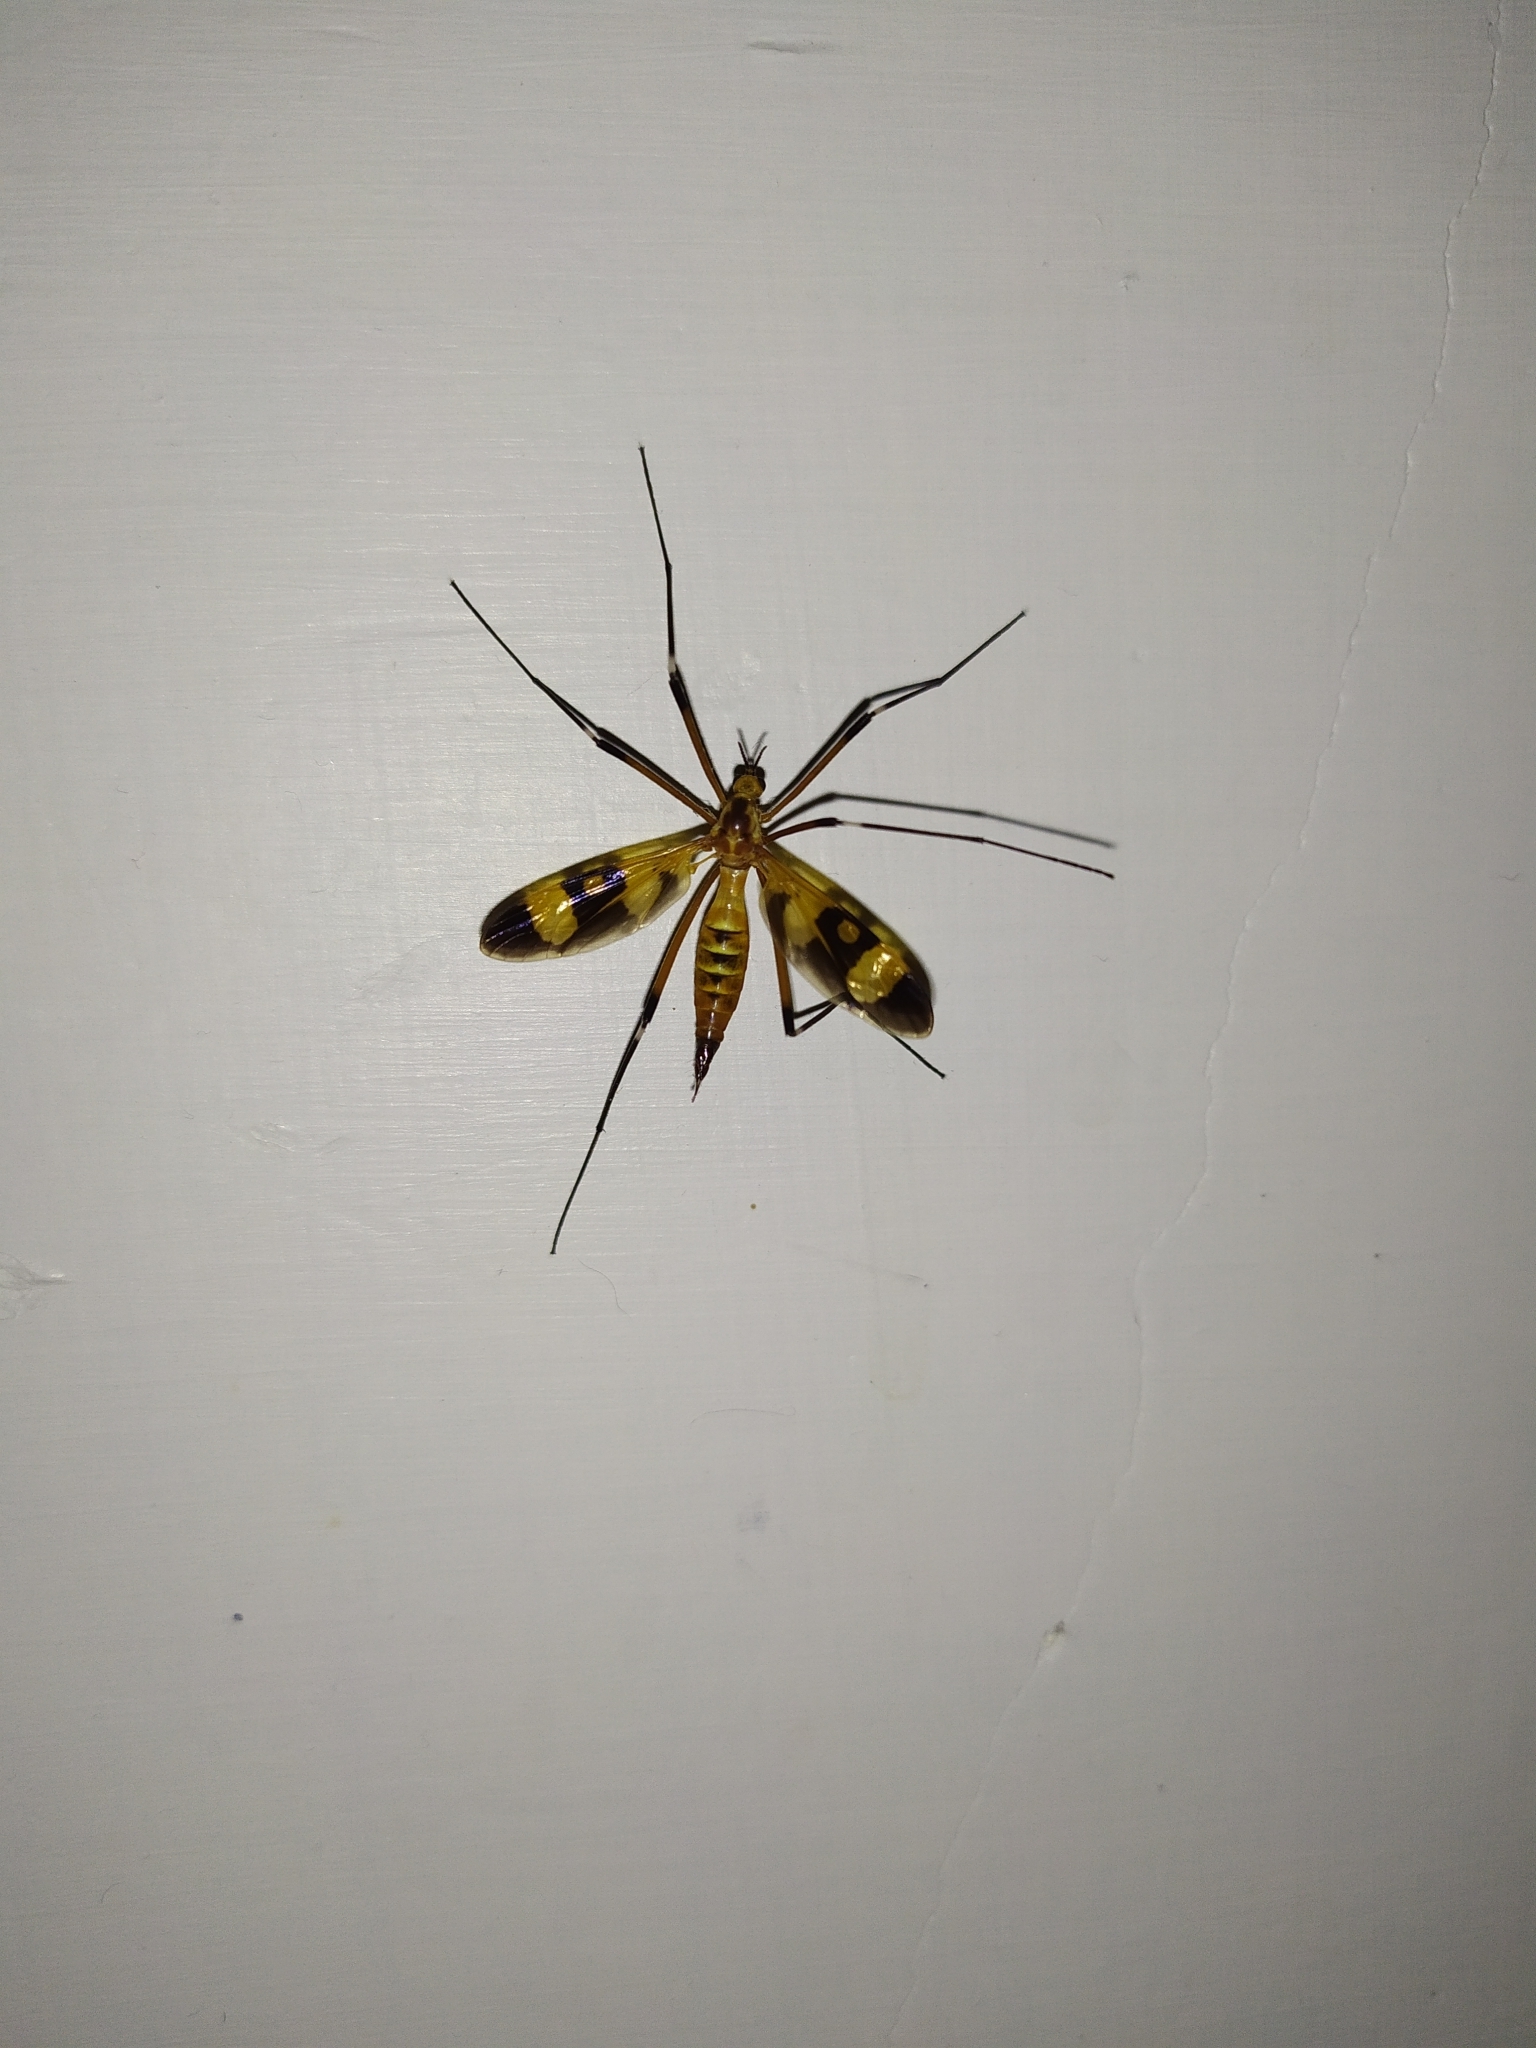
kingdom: Animalia
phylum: Arthropoda
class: Insecta
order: Diptera
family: Tipulidae
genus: Pselliophora
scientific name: Pselliophora laeta
